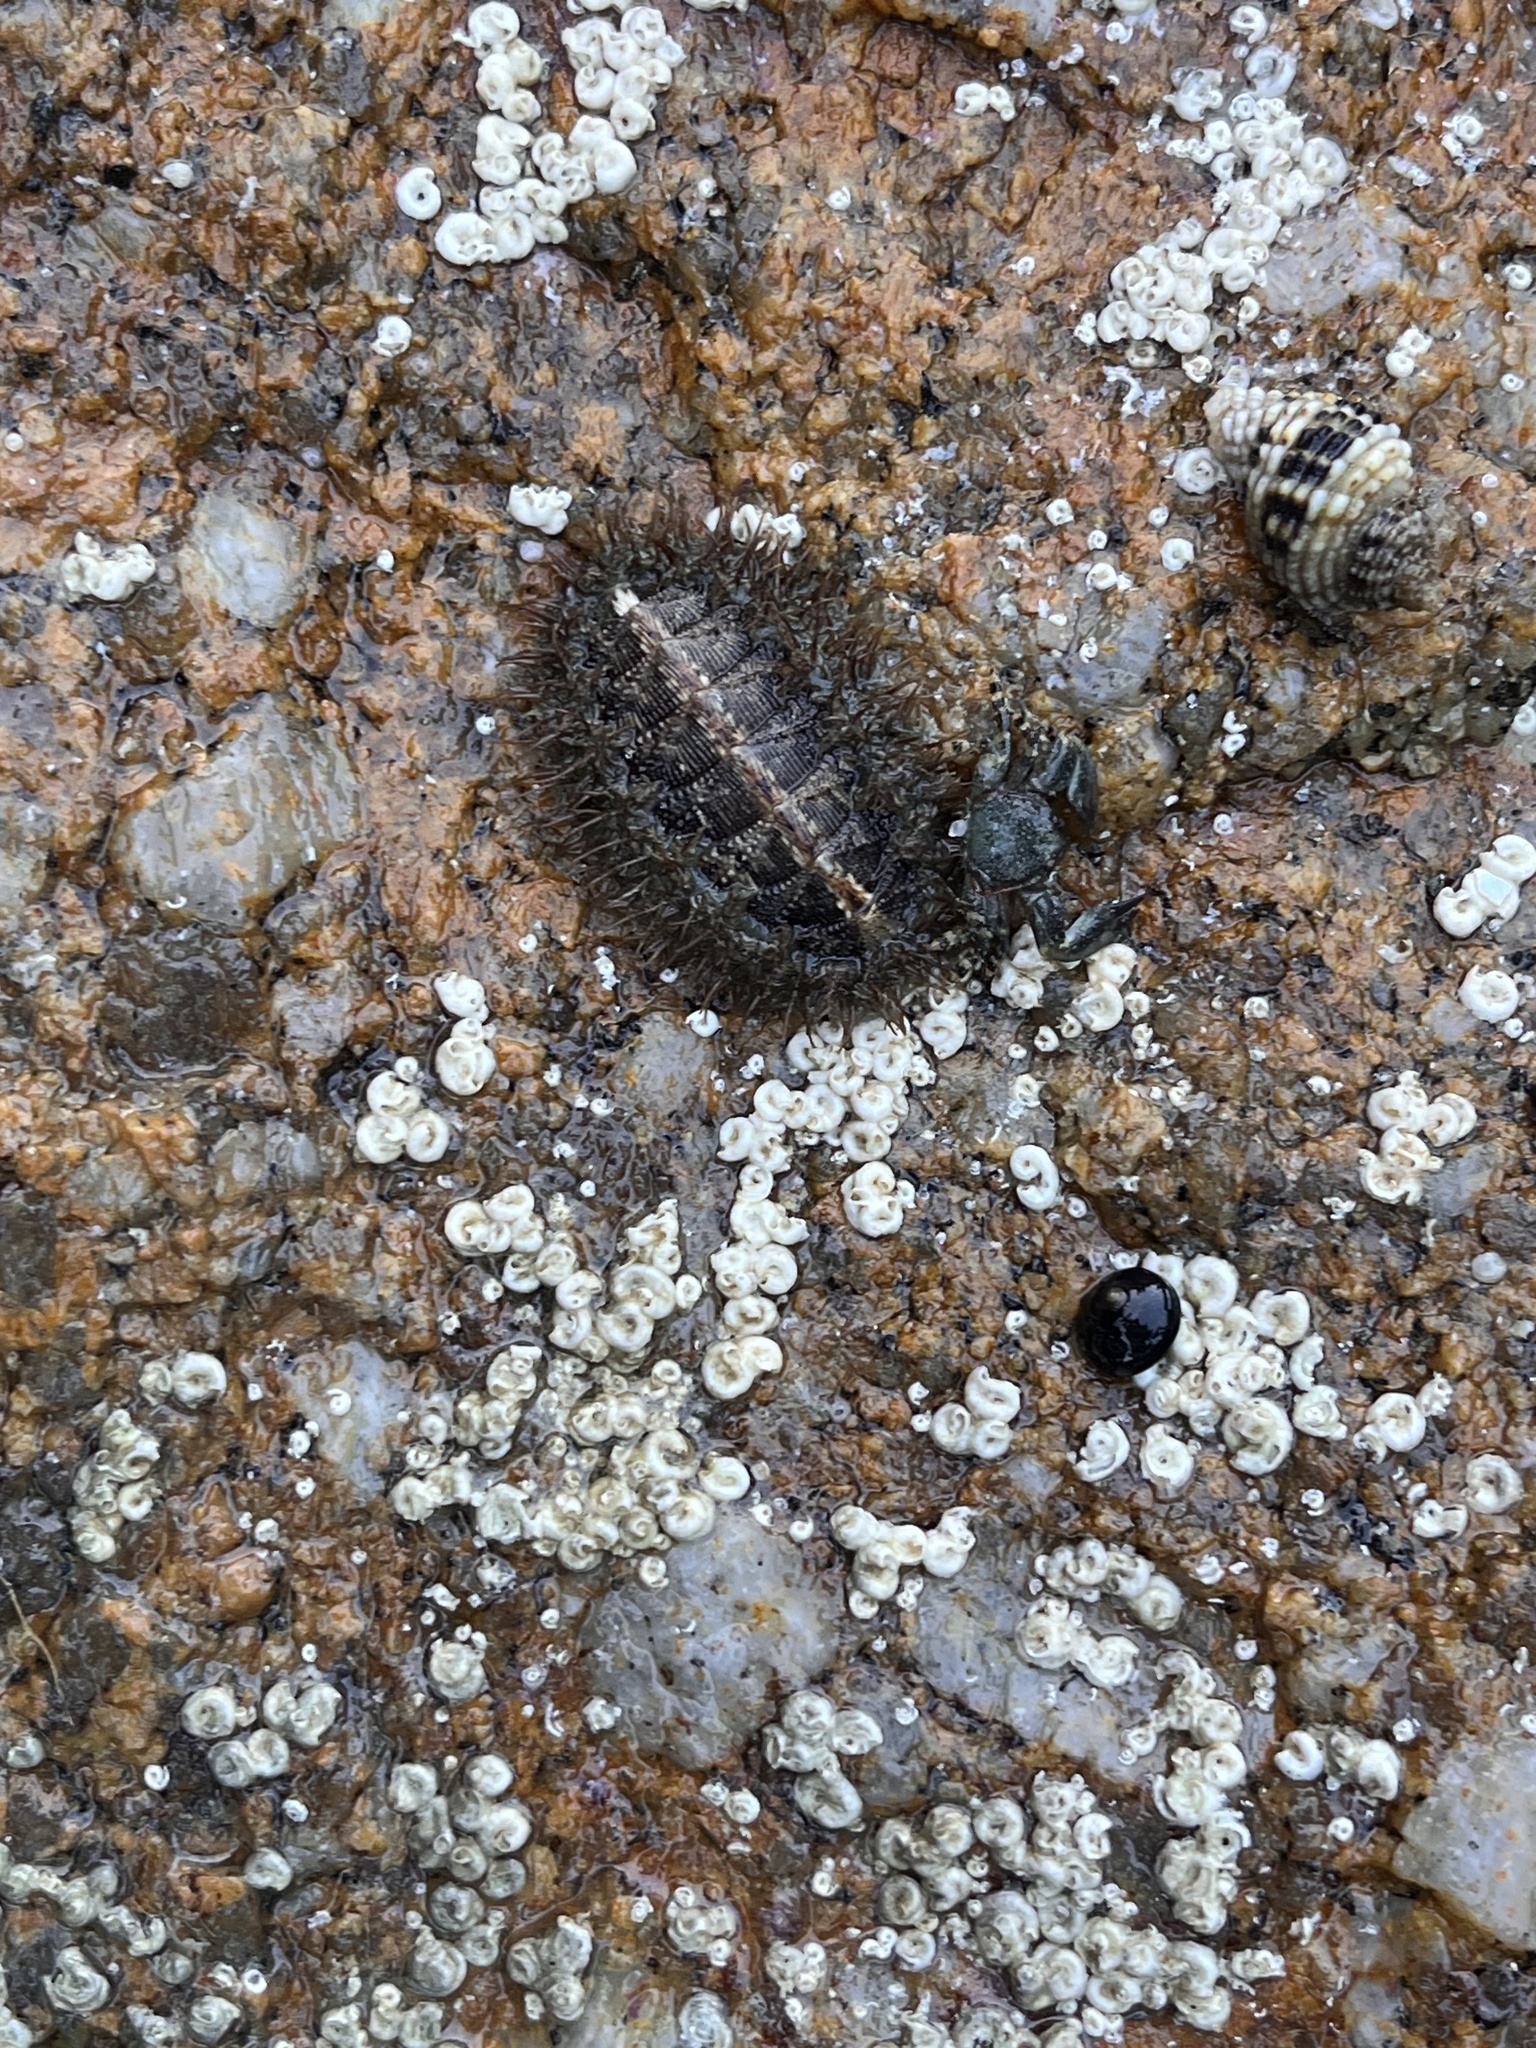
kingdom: Animalia
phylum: Mollusca
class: Polyplacophora
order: Chitonida
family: Mopaliidae
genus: Mopalia
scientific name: Mopalia muscosa
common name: Mossy chiton
